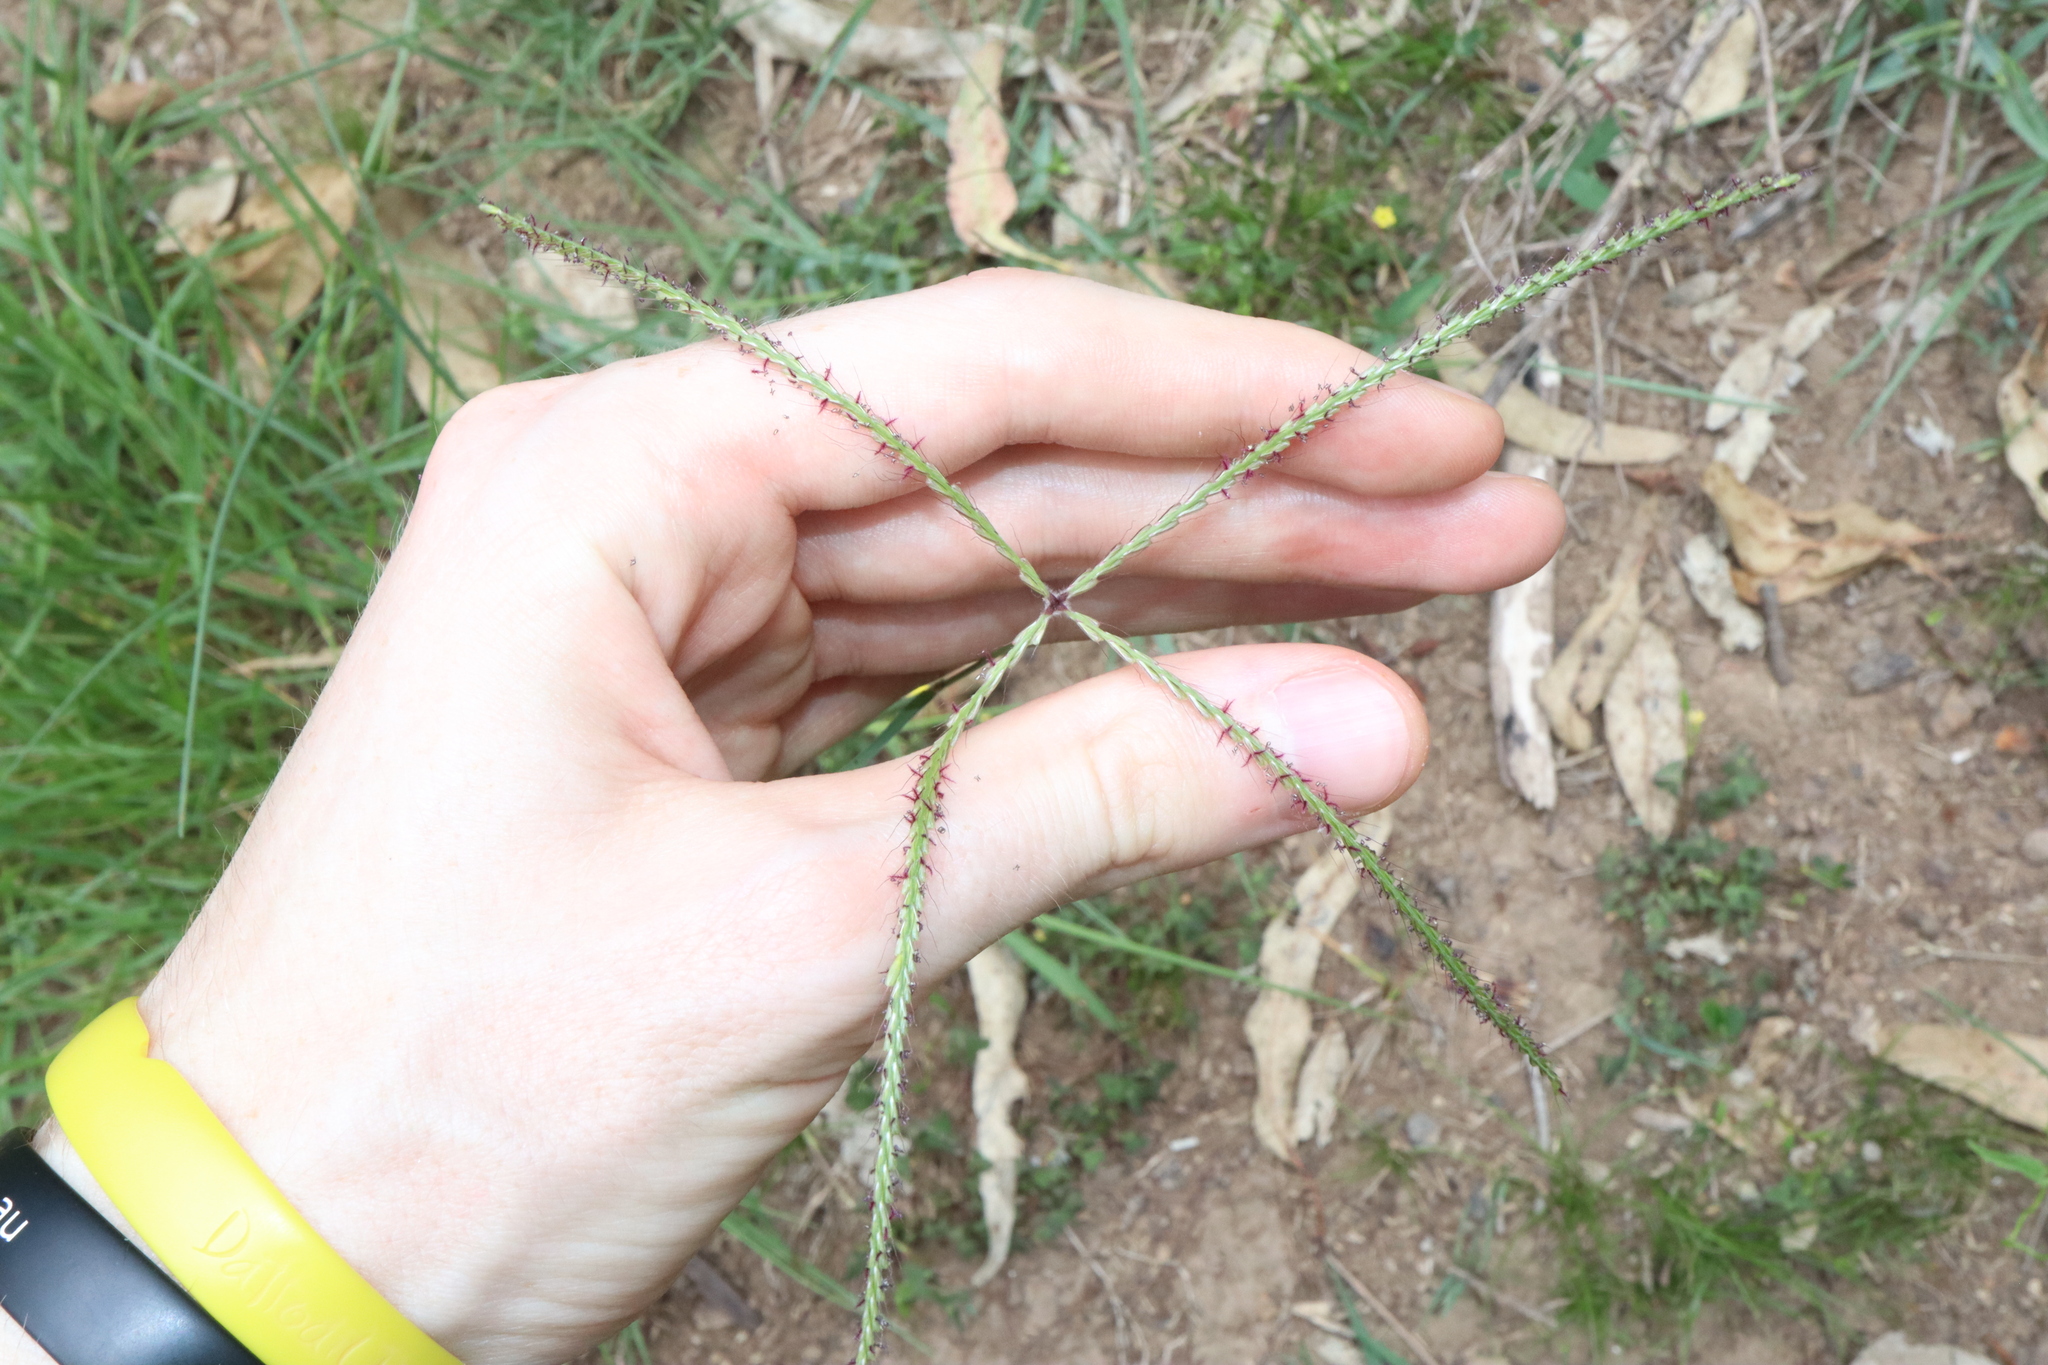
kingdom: Plantae
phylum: Tracheophyta
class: Liliopsida
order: Poales
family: Poaceae
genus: Chloris
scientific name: Chloris ventricosa
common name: Australian windmill grass
